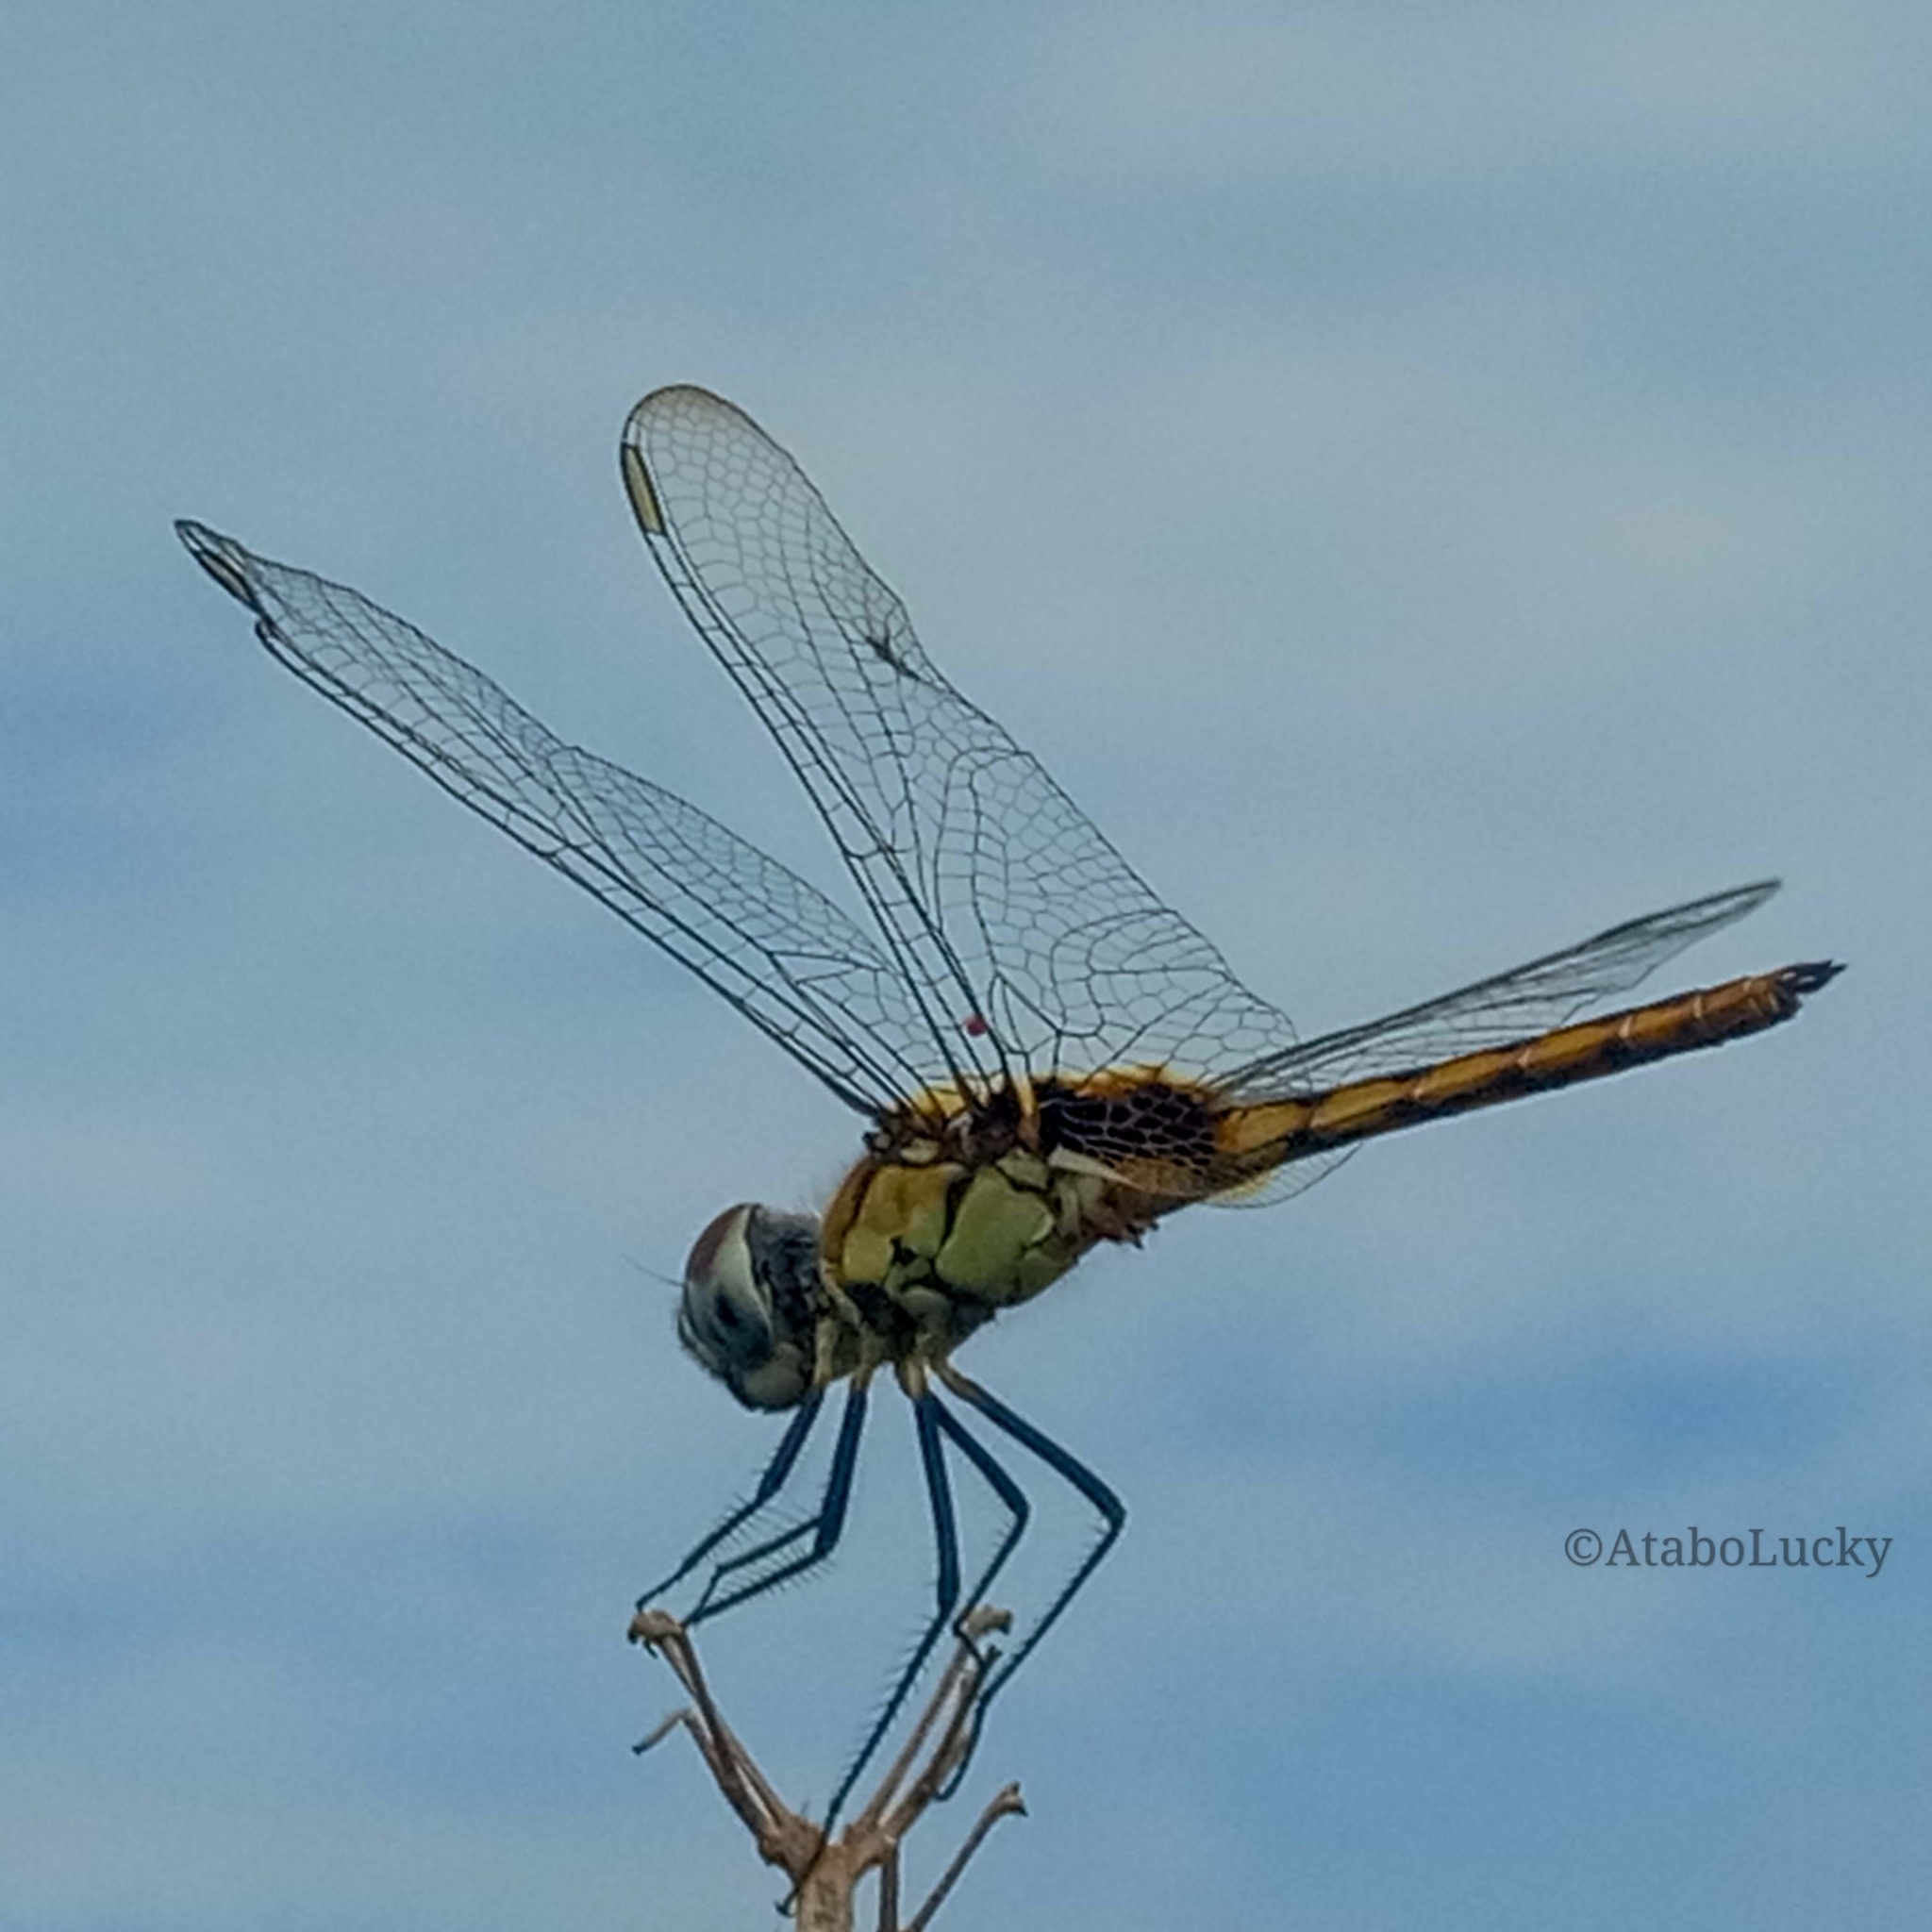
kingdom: Animalia
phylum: Arthropoda
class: Insecta
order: Odonata
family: Libellulidae
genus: Urothemis
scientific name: Urothemis edwardsii
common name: Blue basker
